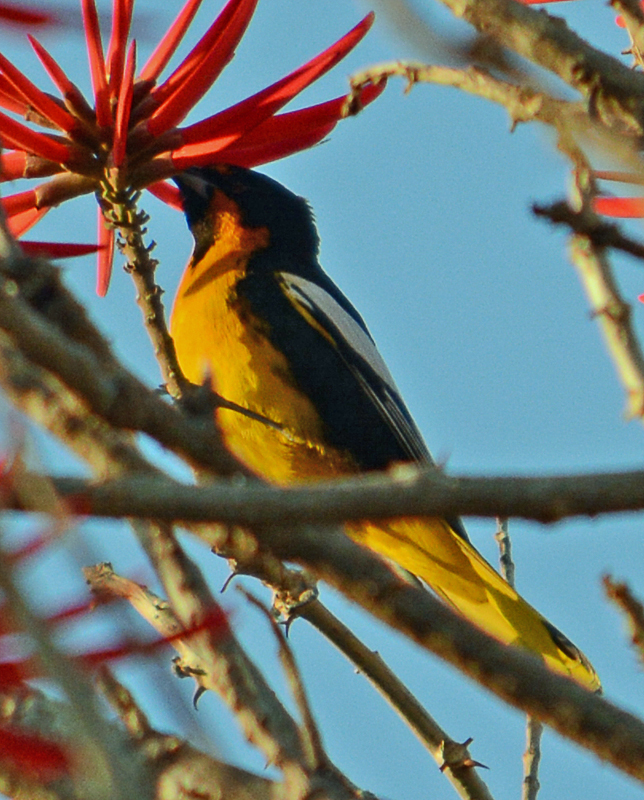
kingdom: Animalia
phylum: Chordata
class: Aves
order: Passeriformes
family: Icteridae
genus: Icterus
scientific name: Icterus abeillei
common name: Black-backed oriole
